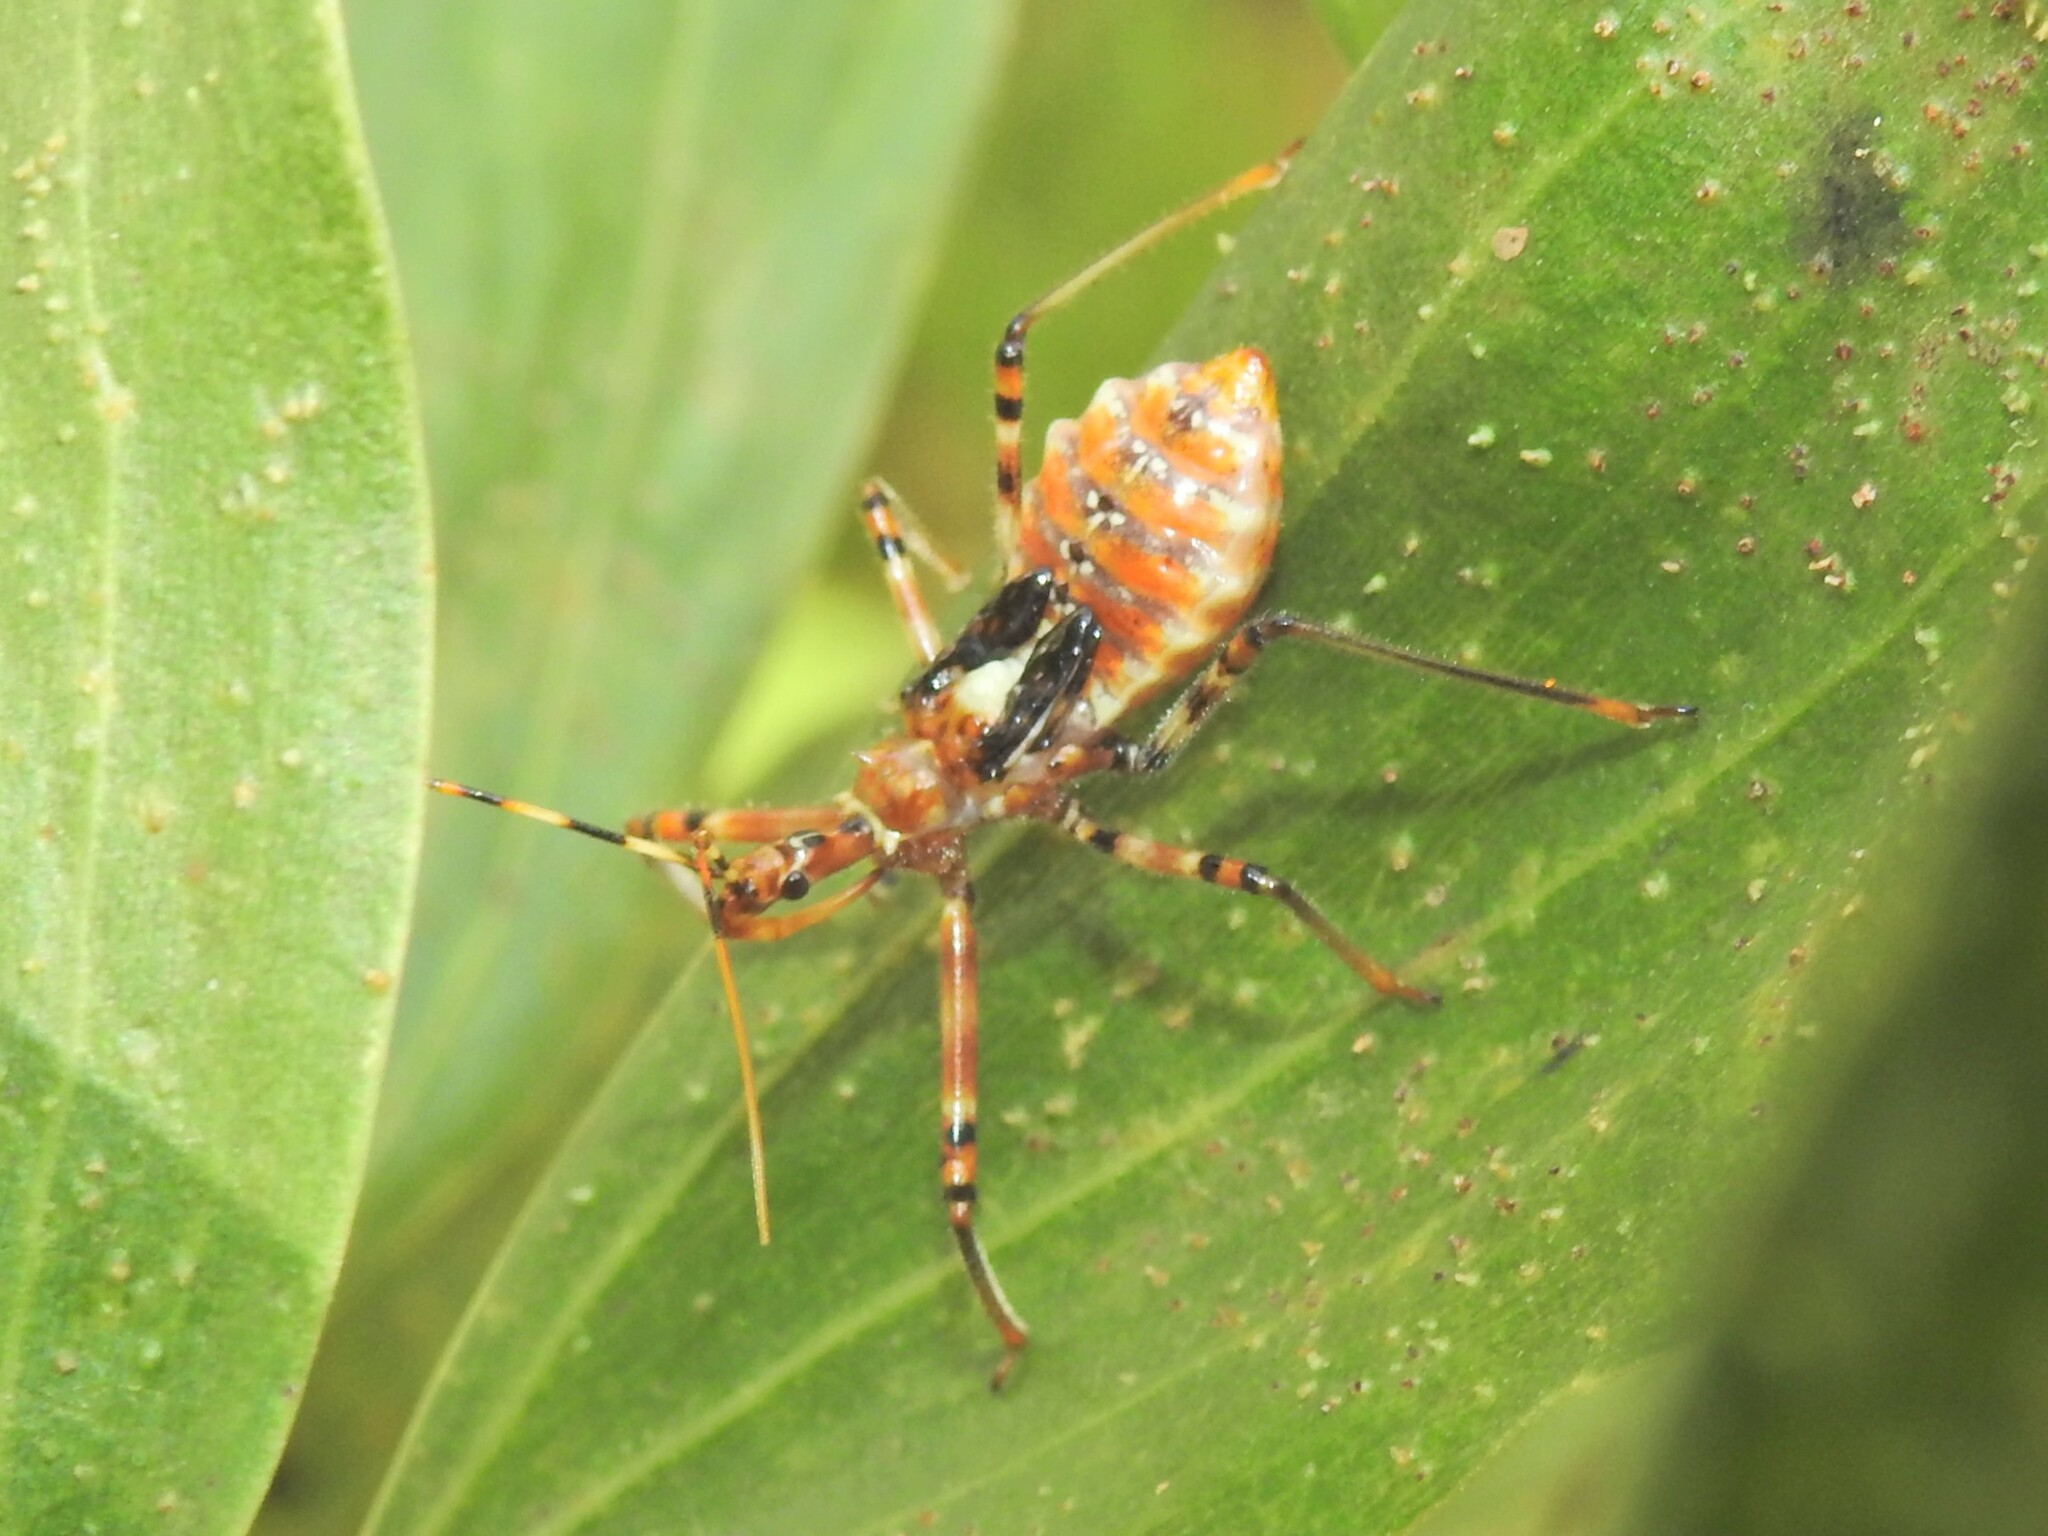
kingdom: Animalia
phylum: Arthropoda
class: Insecta
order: Hemiptera
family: Reduviidae
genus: Pristhesancus
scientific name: Pristhesancus plagipennis
